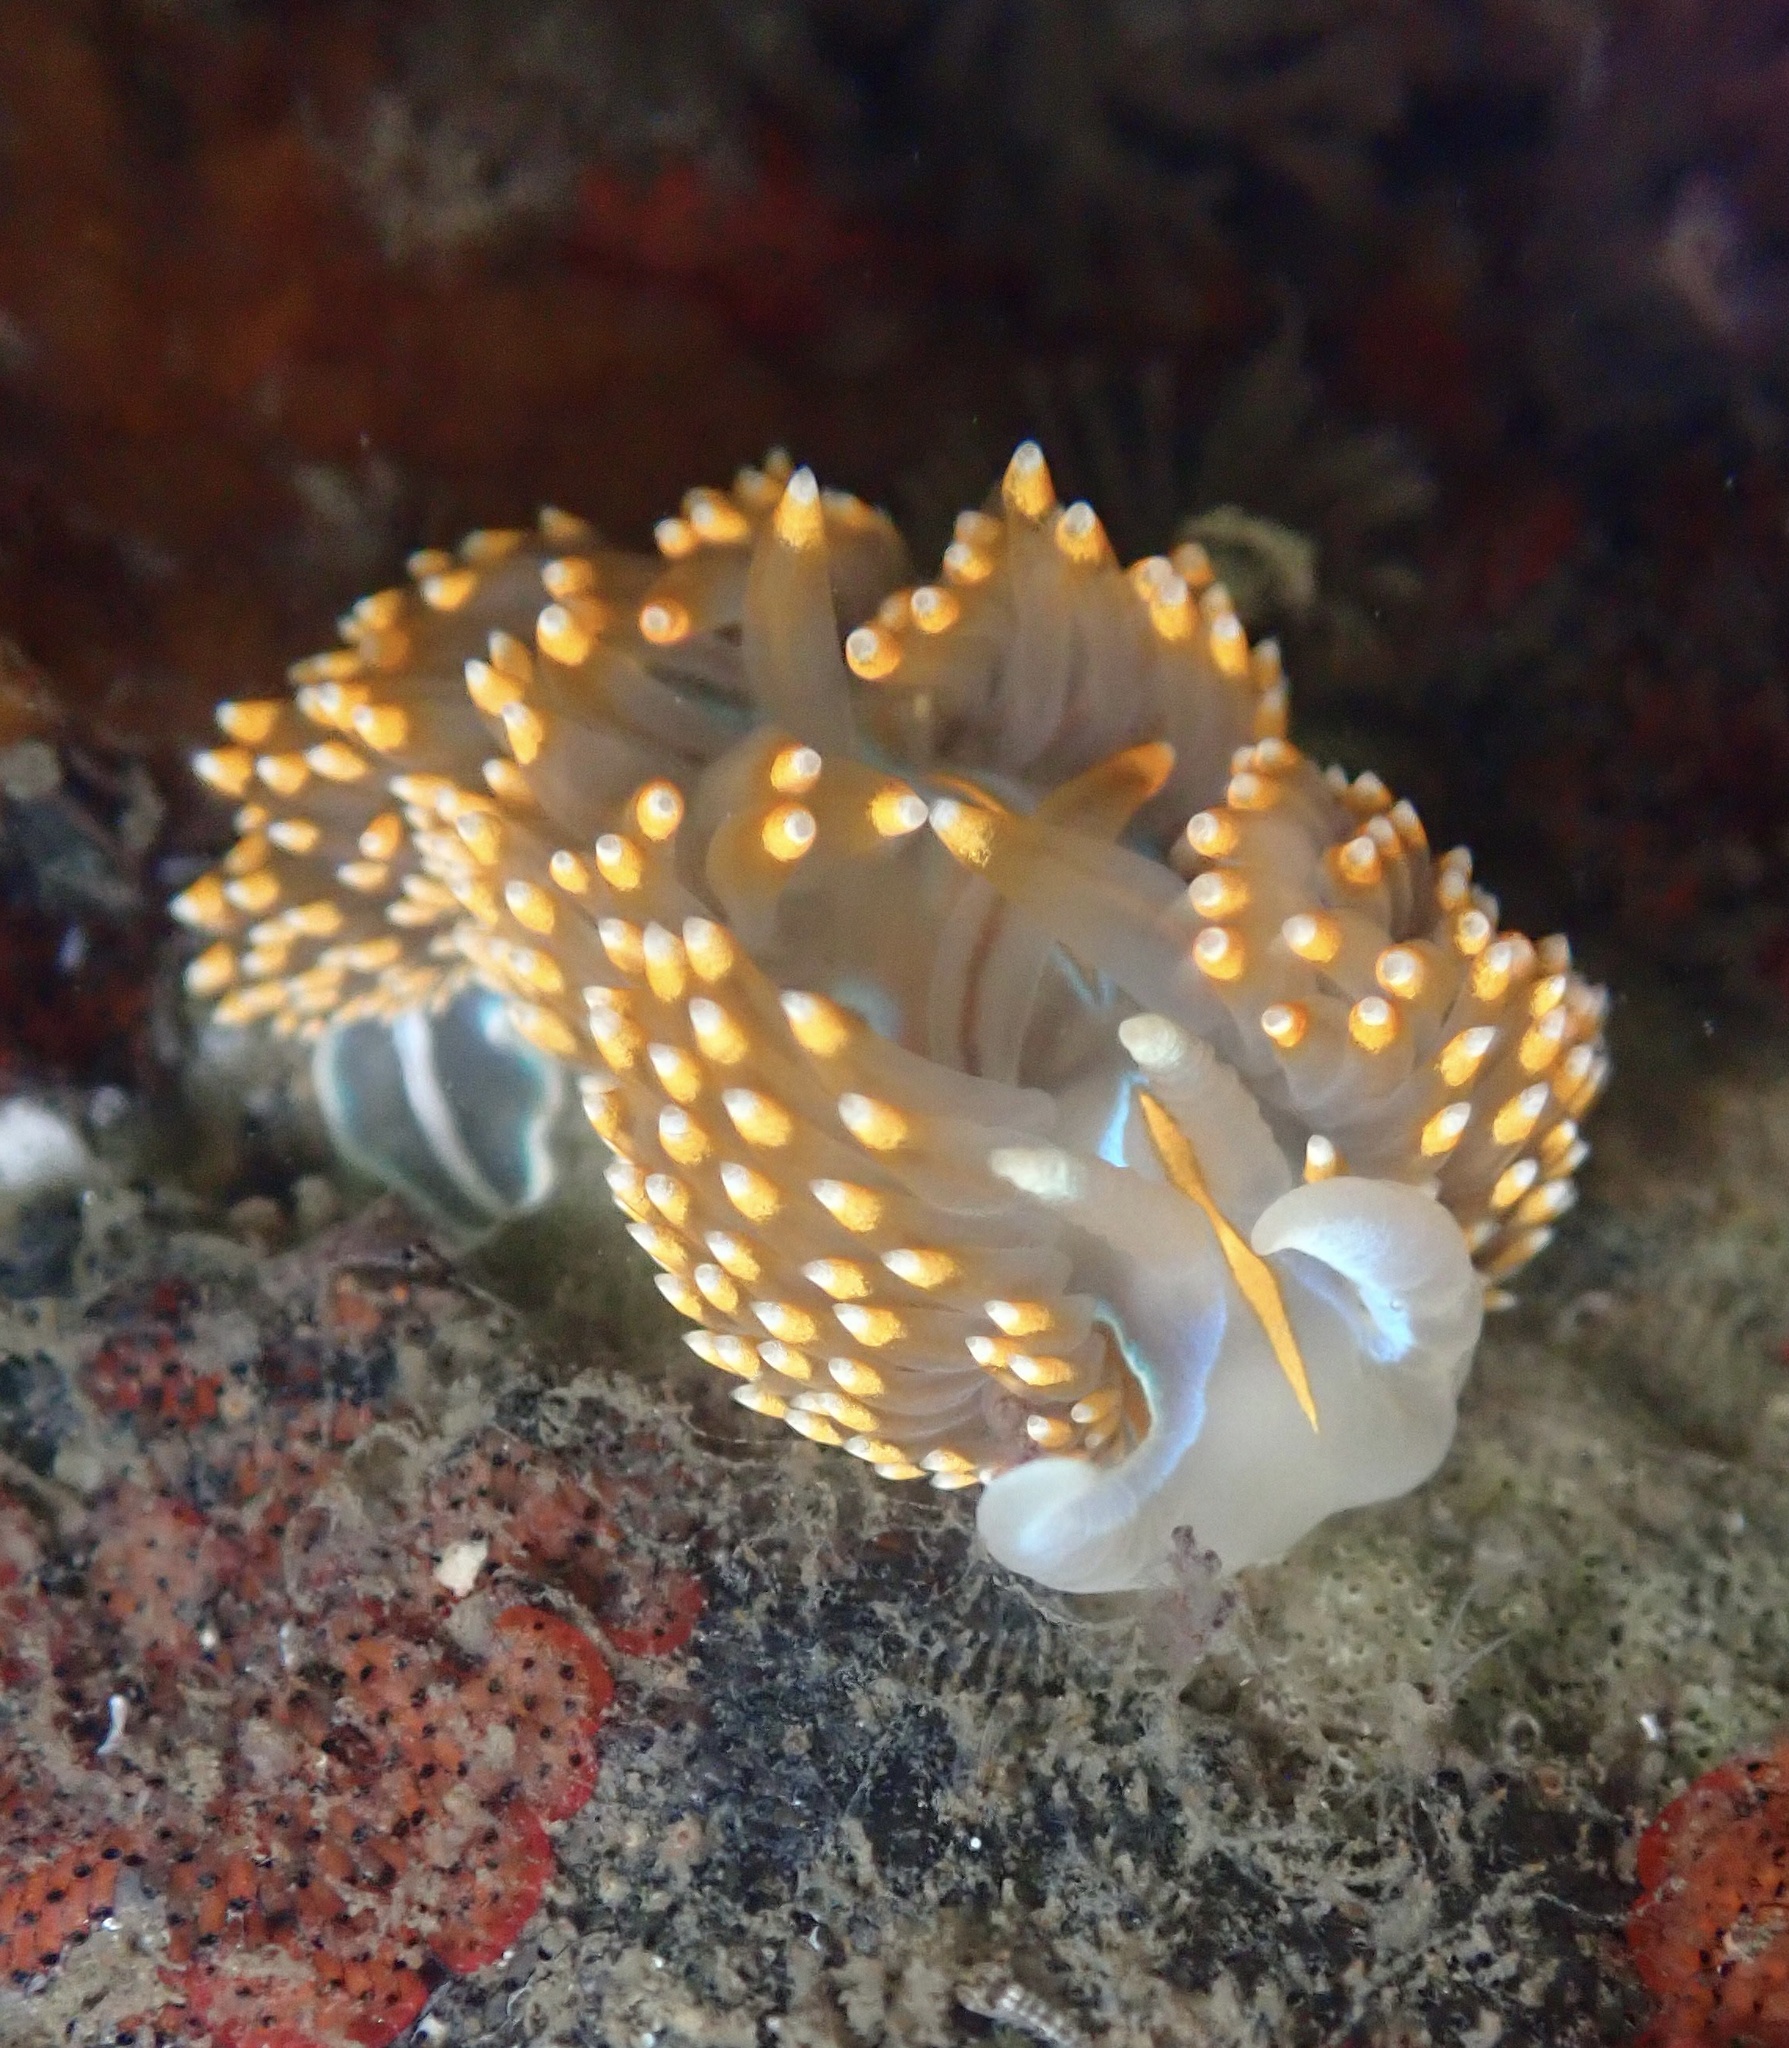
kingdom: Animalia
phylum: Mollusca
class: Gastropoda
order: Nudibranchia
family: Myrrhinidae
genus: Hermissenda
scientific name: Hermissenda opalescens
